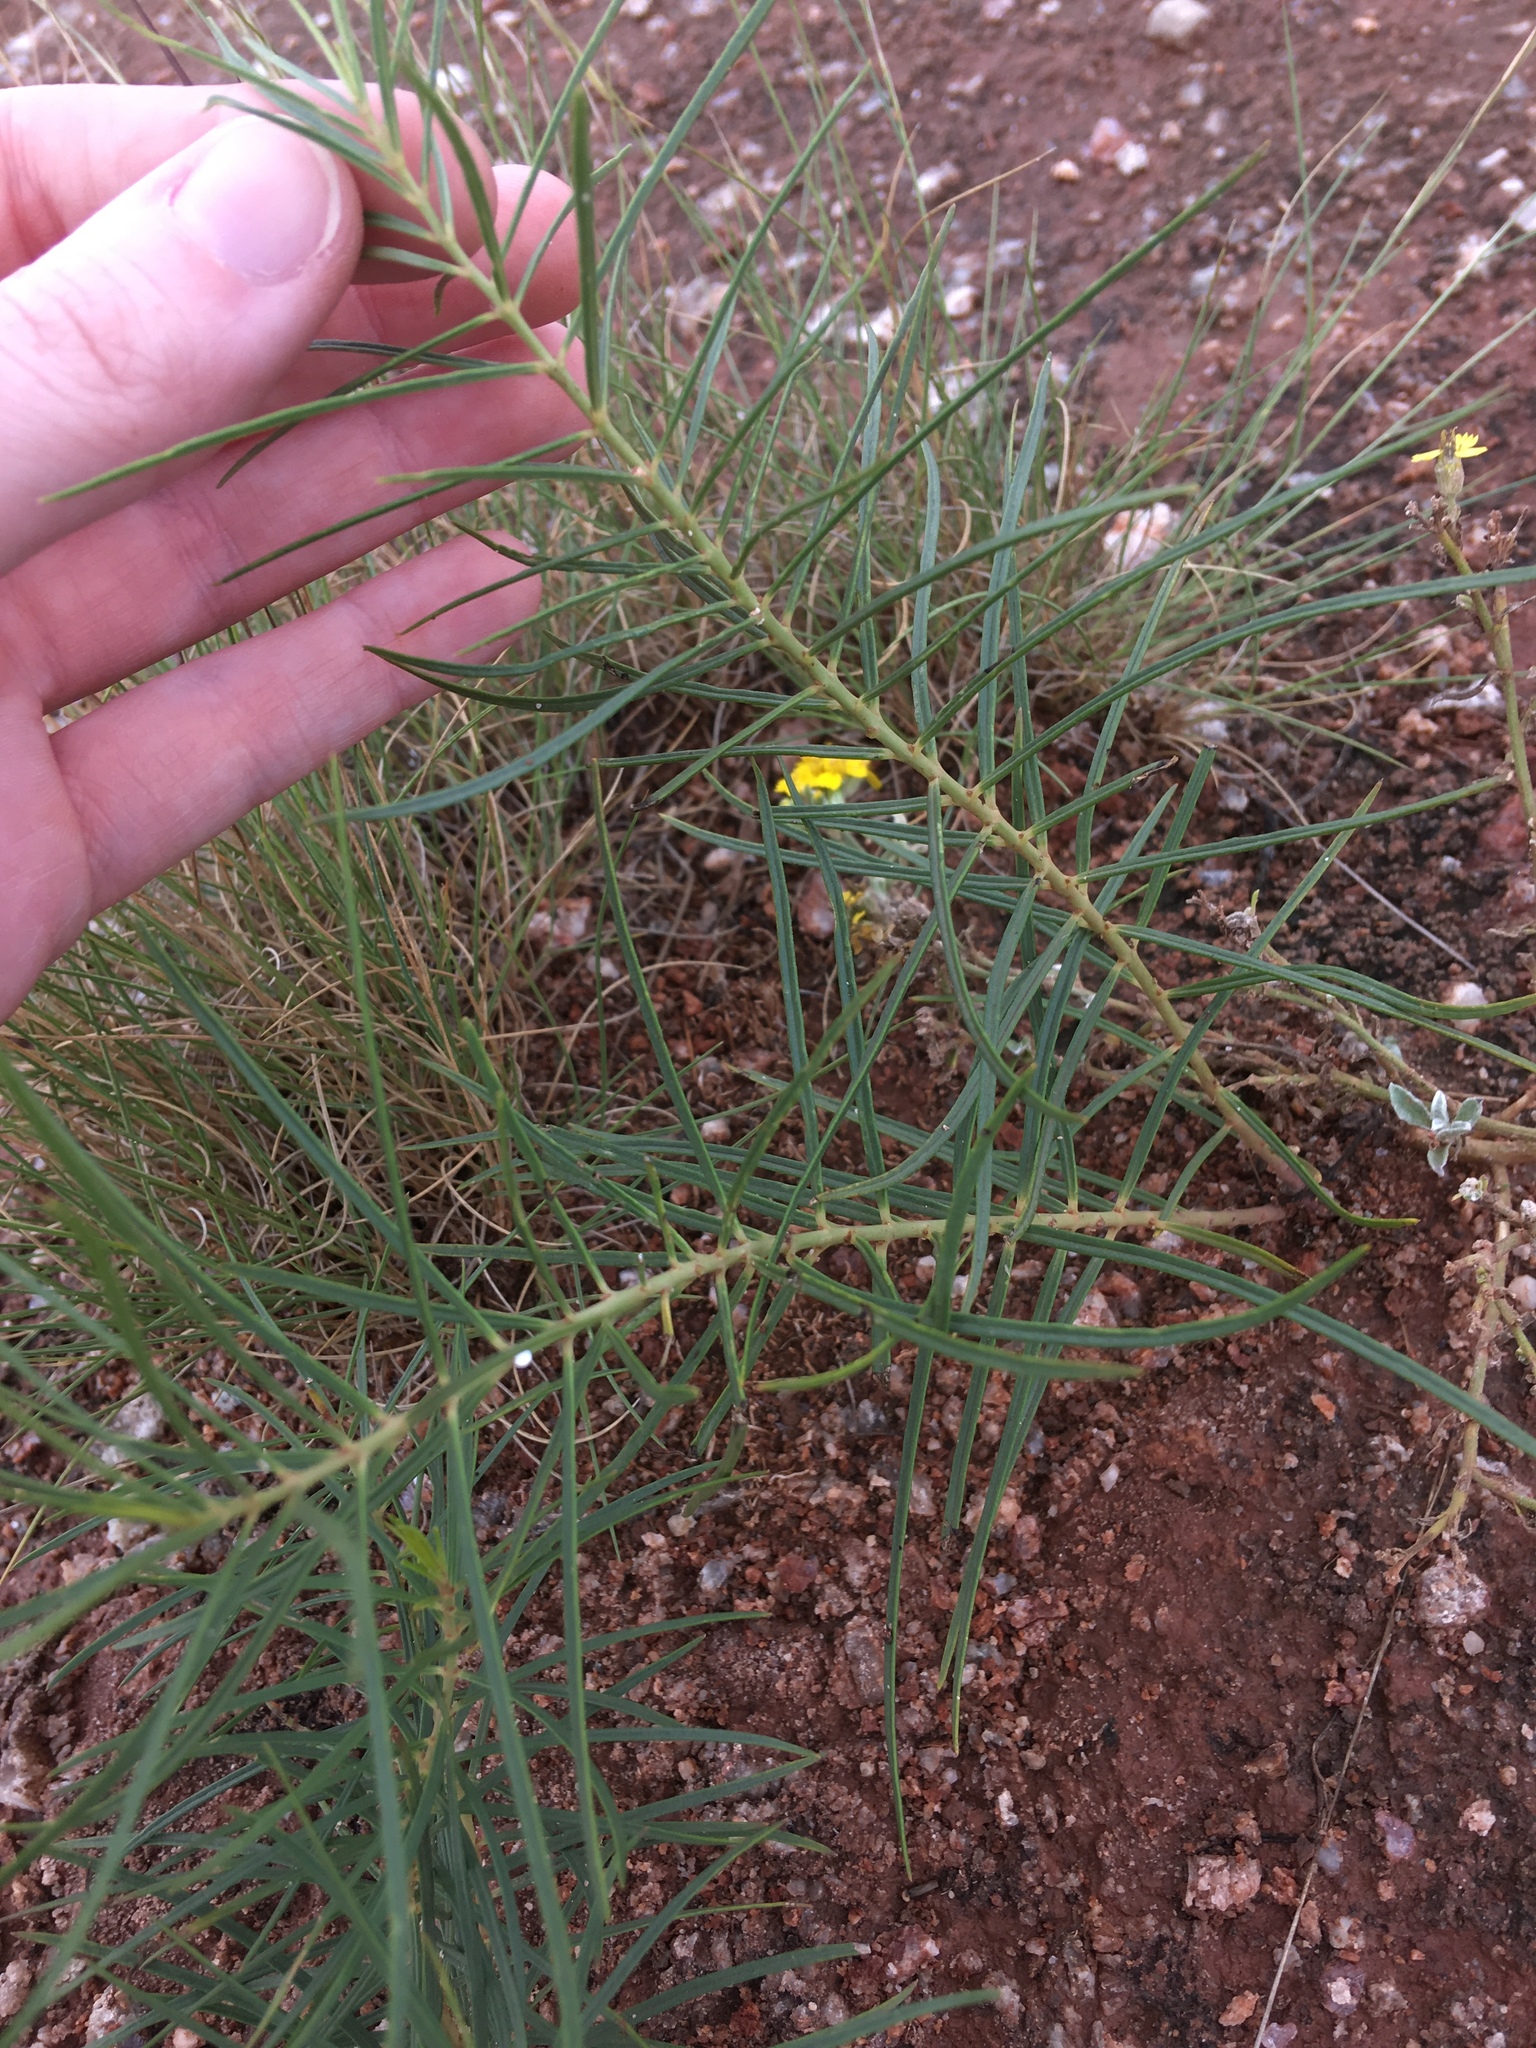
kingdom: Plantae
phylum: Tracheophyta
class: Magnoliopsida
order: Gentianales
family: Apocynaceae
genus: Asclepias
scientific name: Asclepias engelmanniana
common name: Engelmann's milkweed
